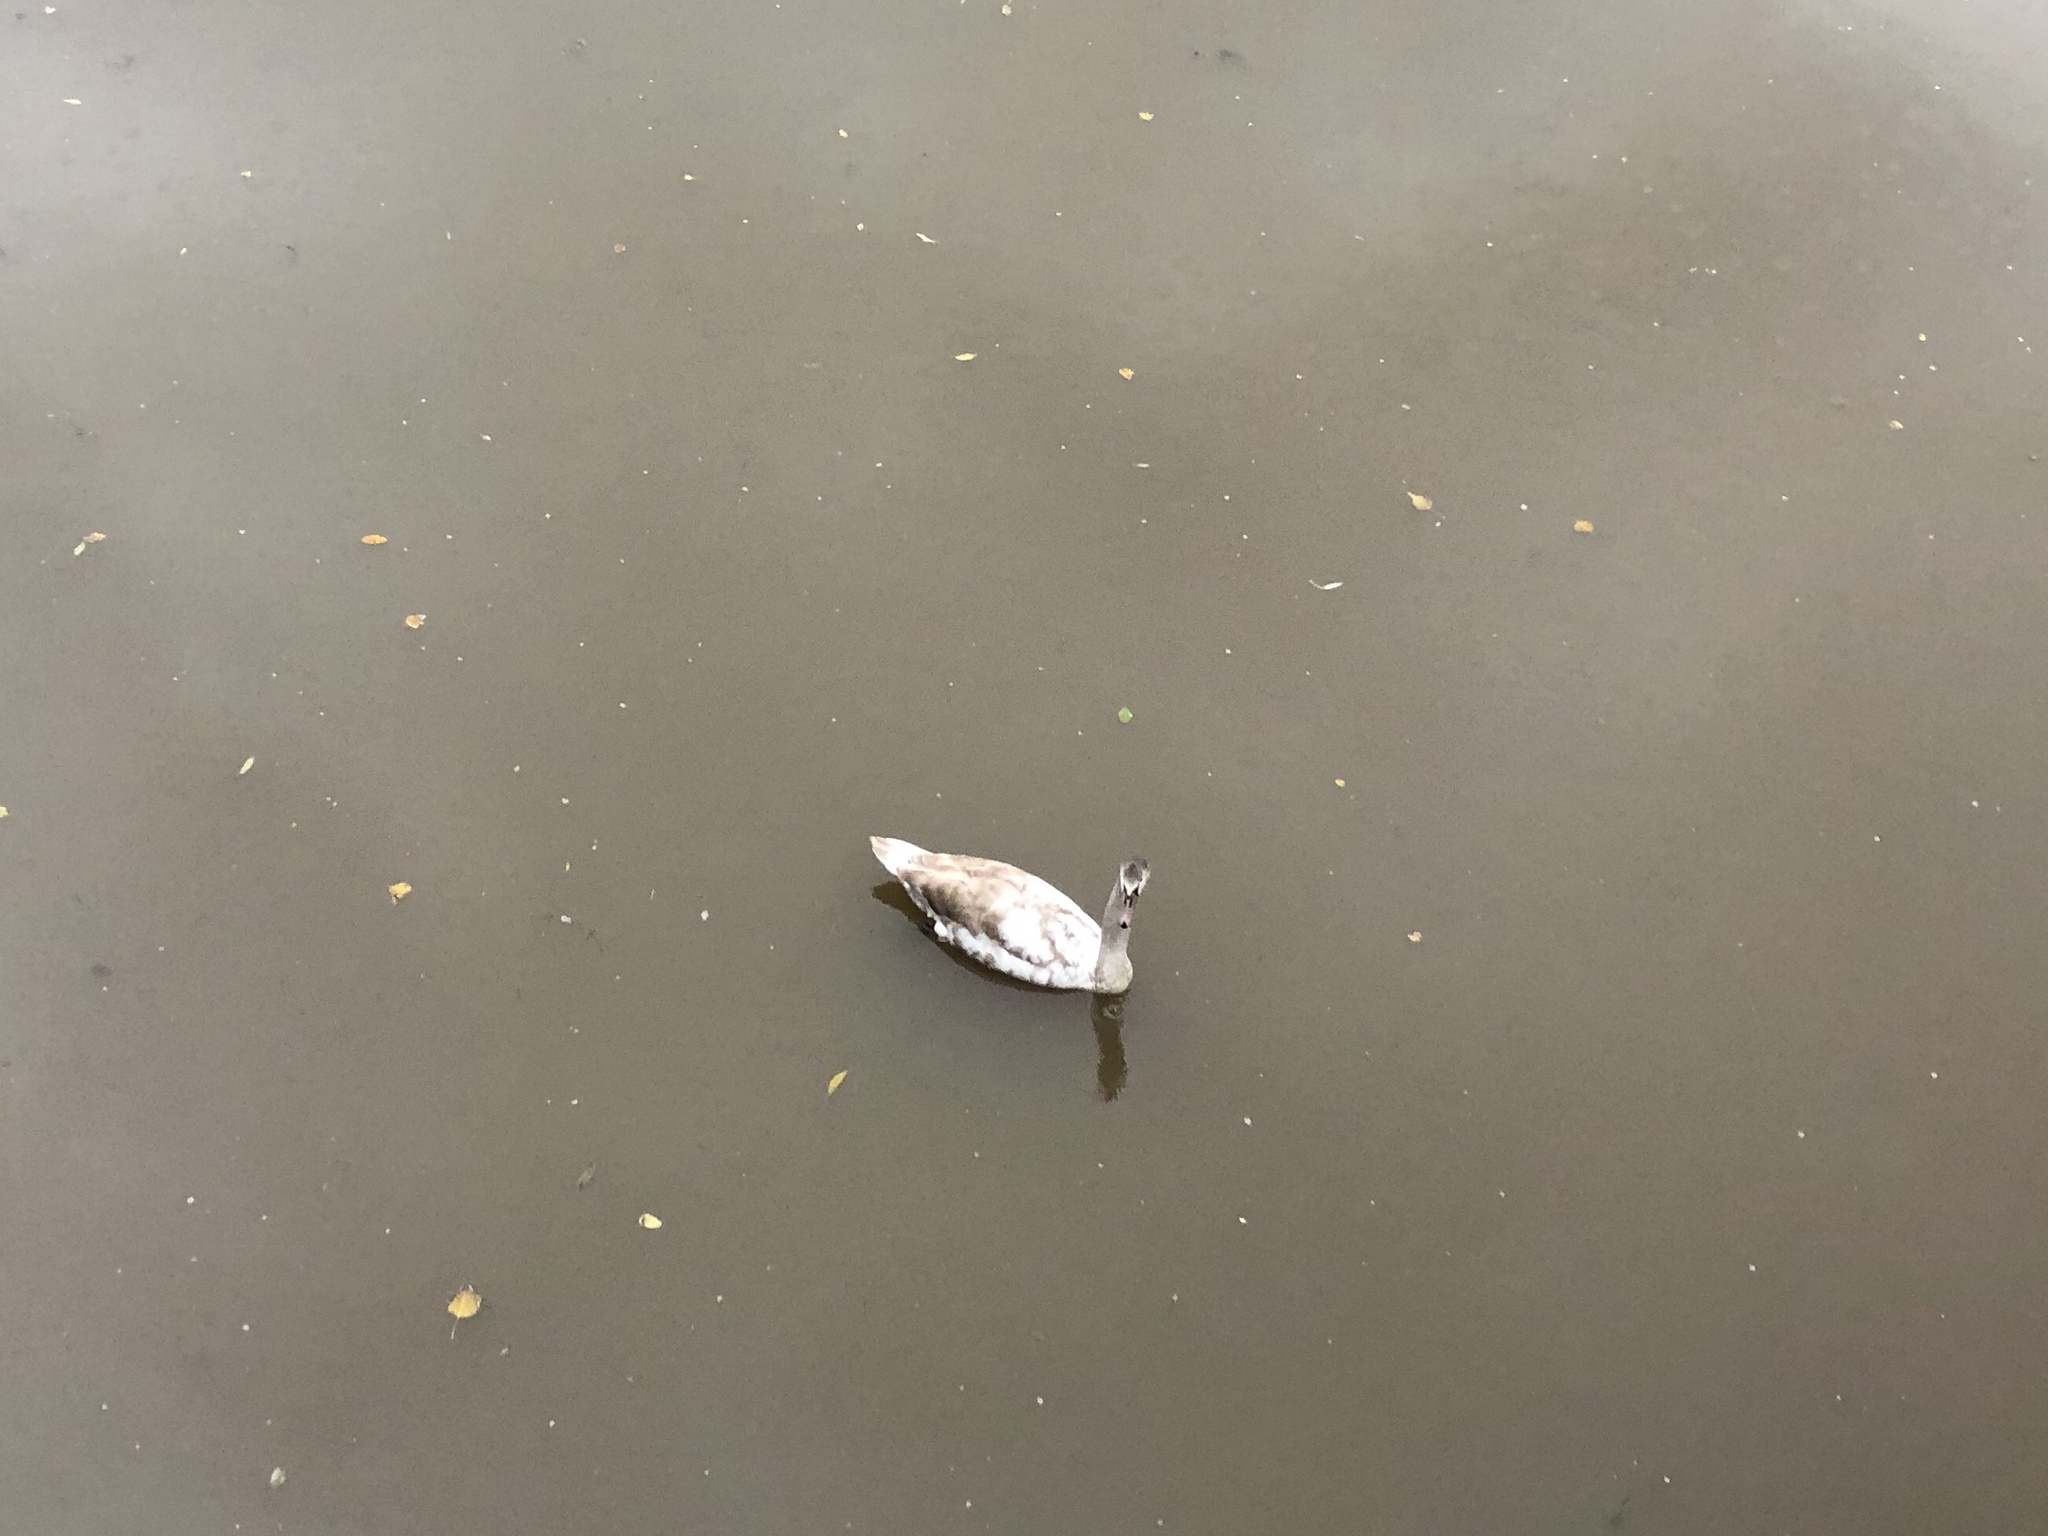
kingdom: Animalia
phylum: Chordata
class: Aves
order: Anseriformes
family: Anatidae
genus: Cygnus
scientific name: Cygnus olor
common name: Mute swan
